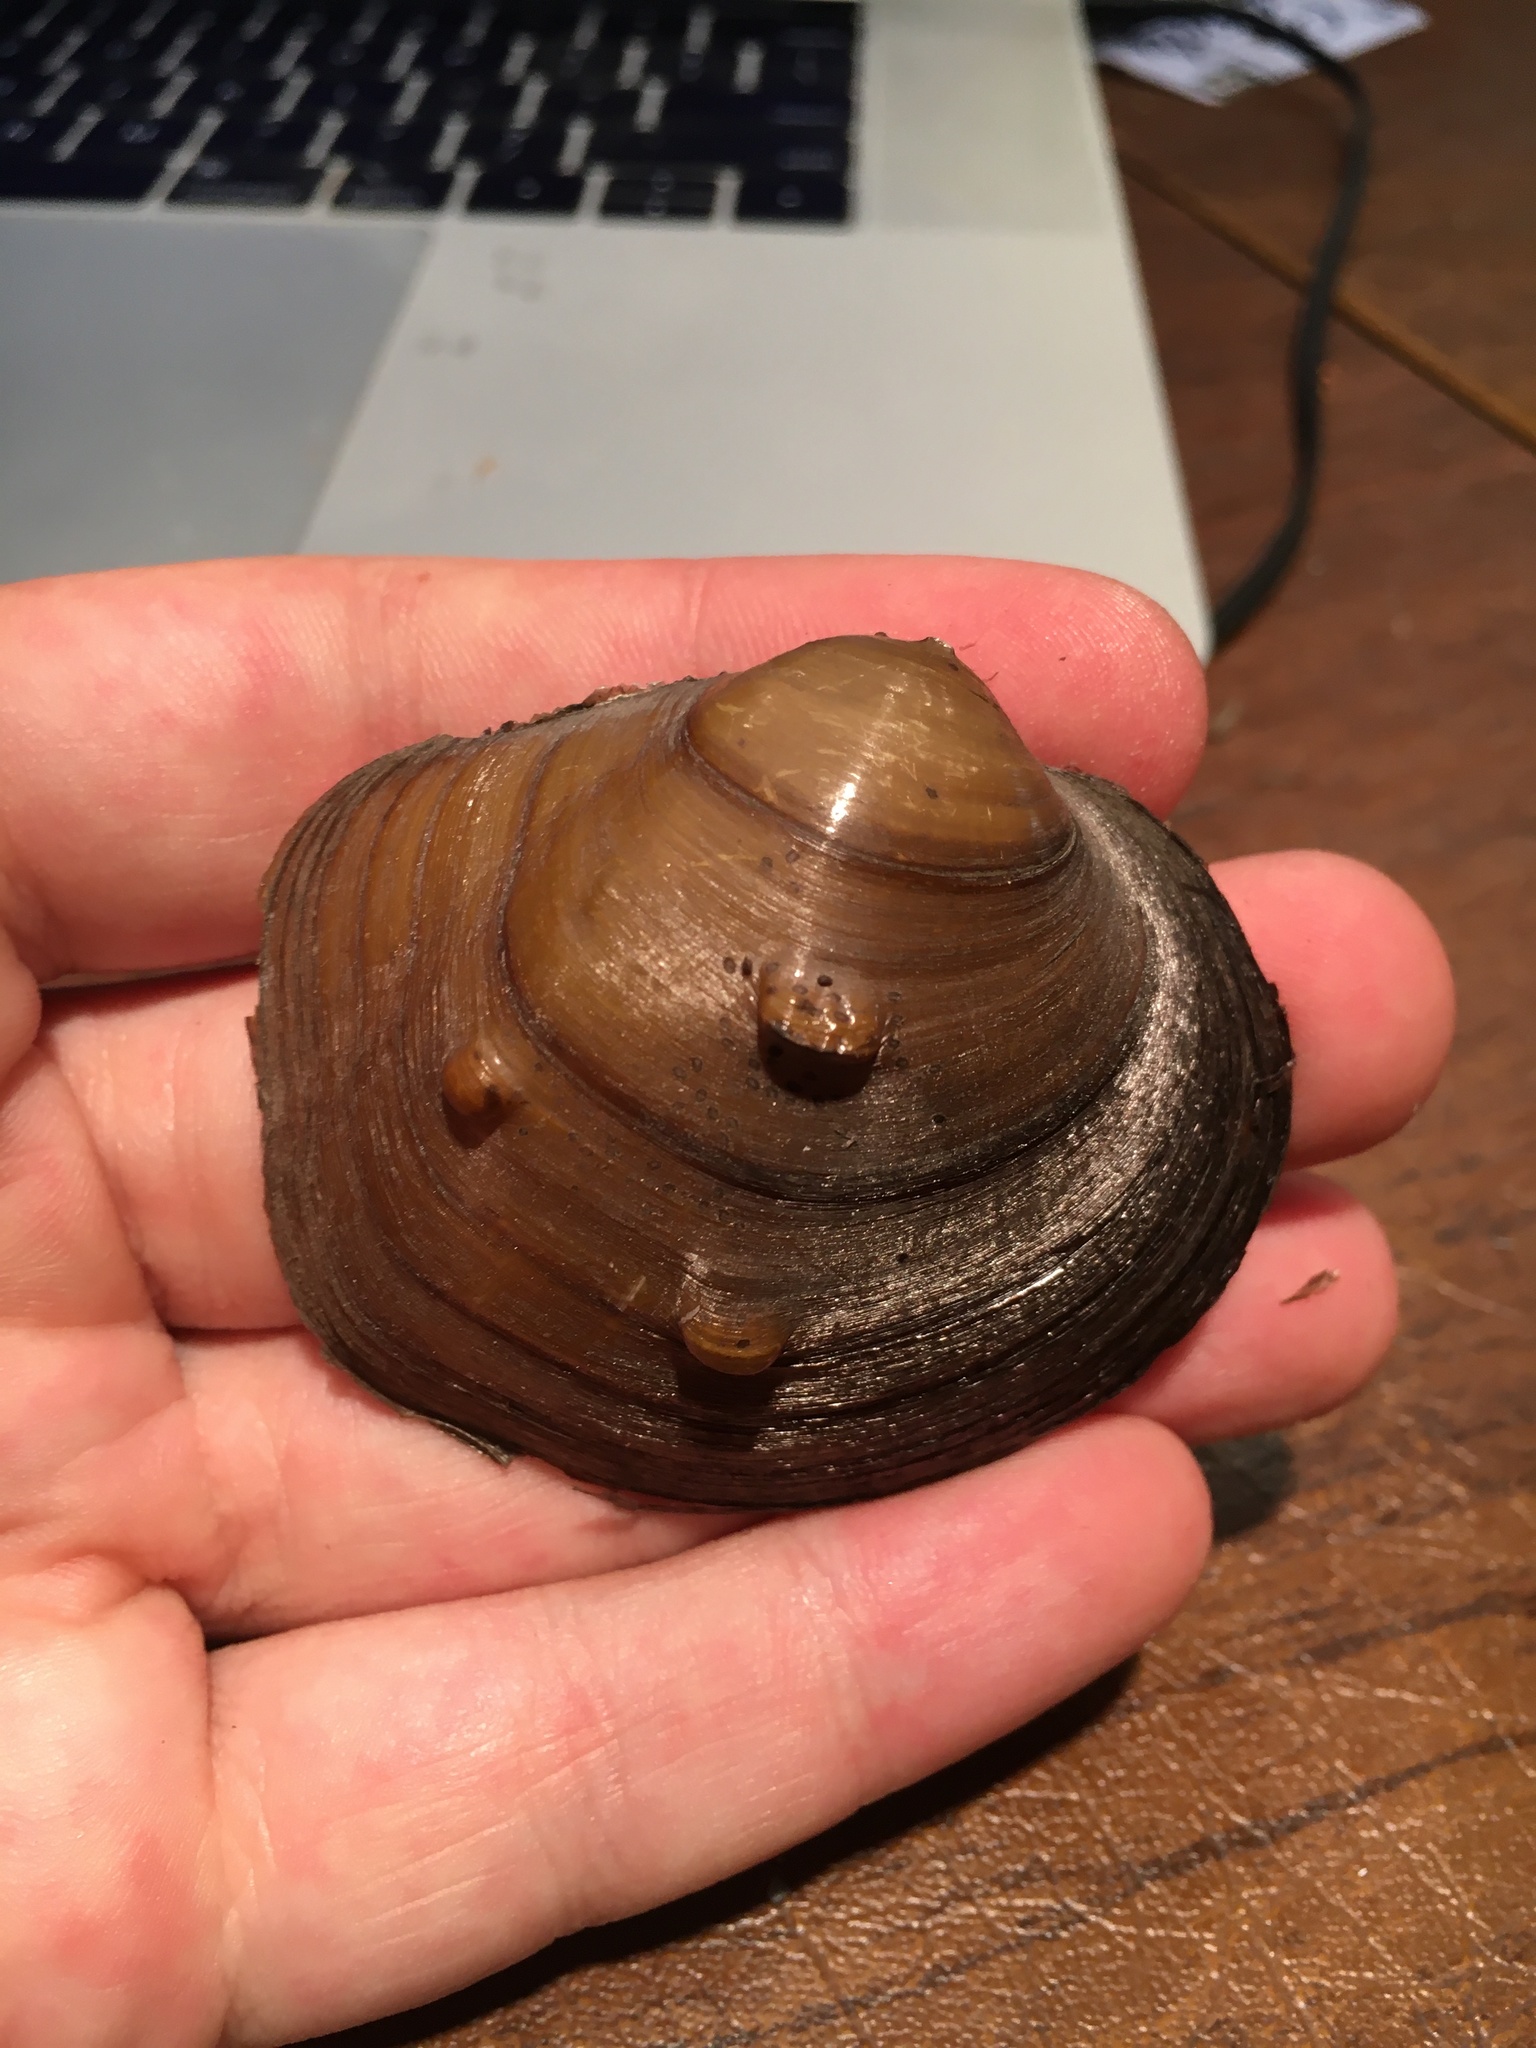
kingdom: Animalia
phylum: Mollusca
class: Bivalvia
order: Unionida
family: Unionidae
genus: Cyclonaias
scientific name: Cyclonaias nodulata
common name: Wartyback
